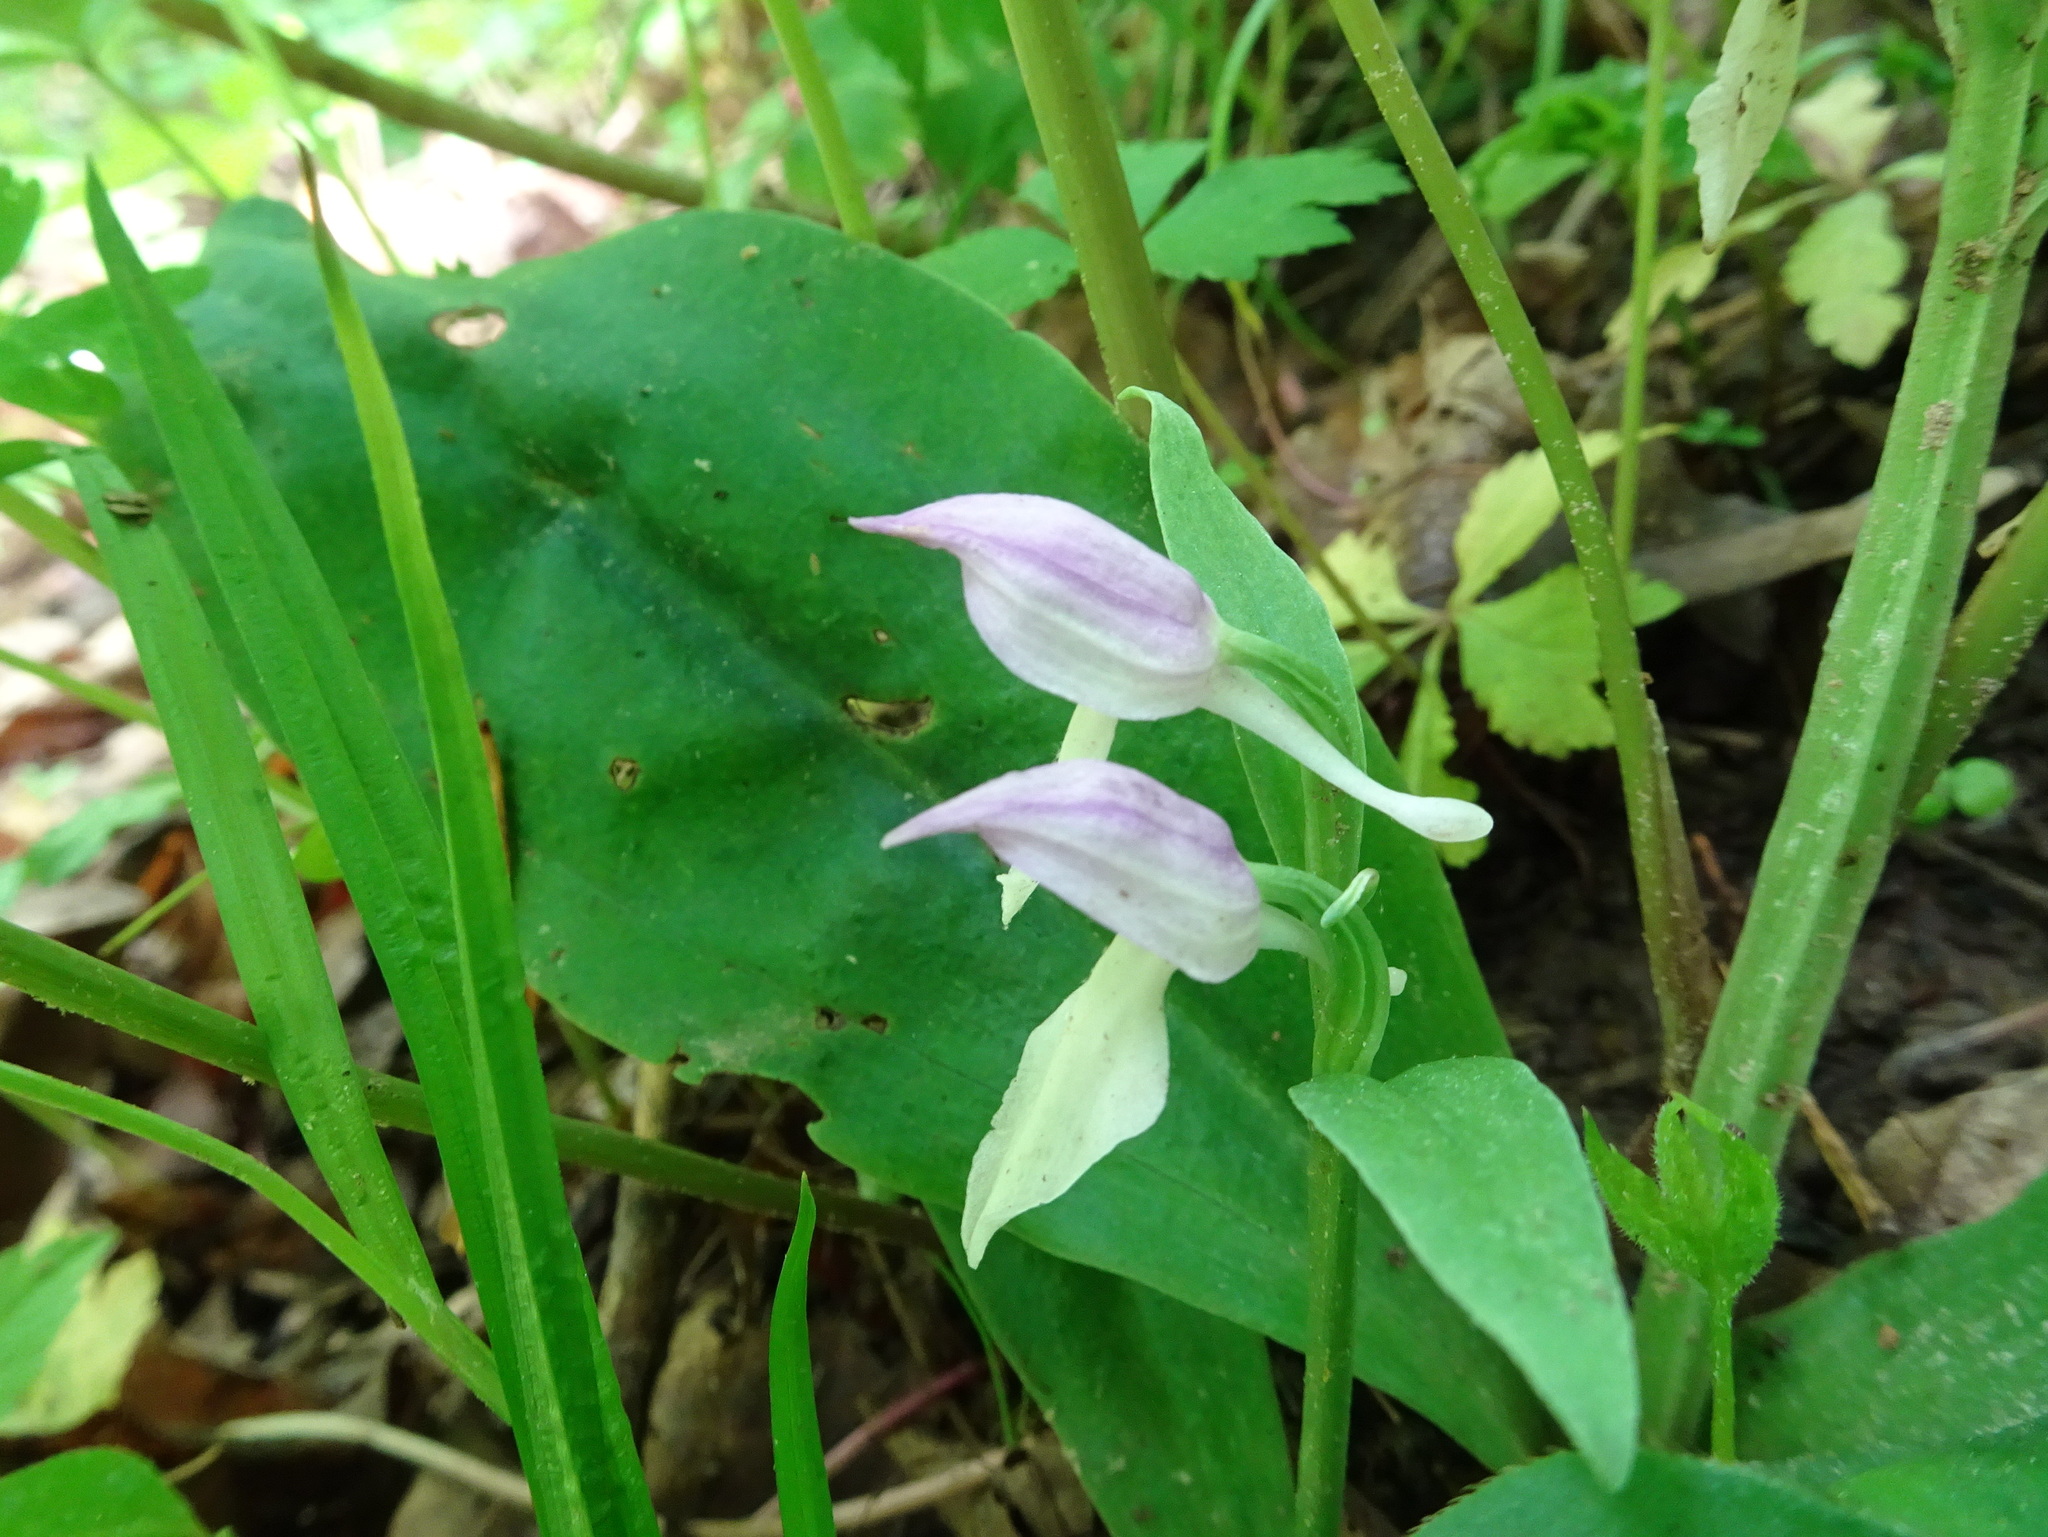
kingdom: Plantae
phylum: Tracheophyta
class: Liliopsida
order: Asparagales
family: Orchidaceae
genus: Galearis
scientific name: Galearis spectabilis
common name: Purple-hooded orchis
